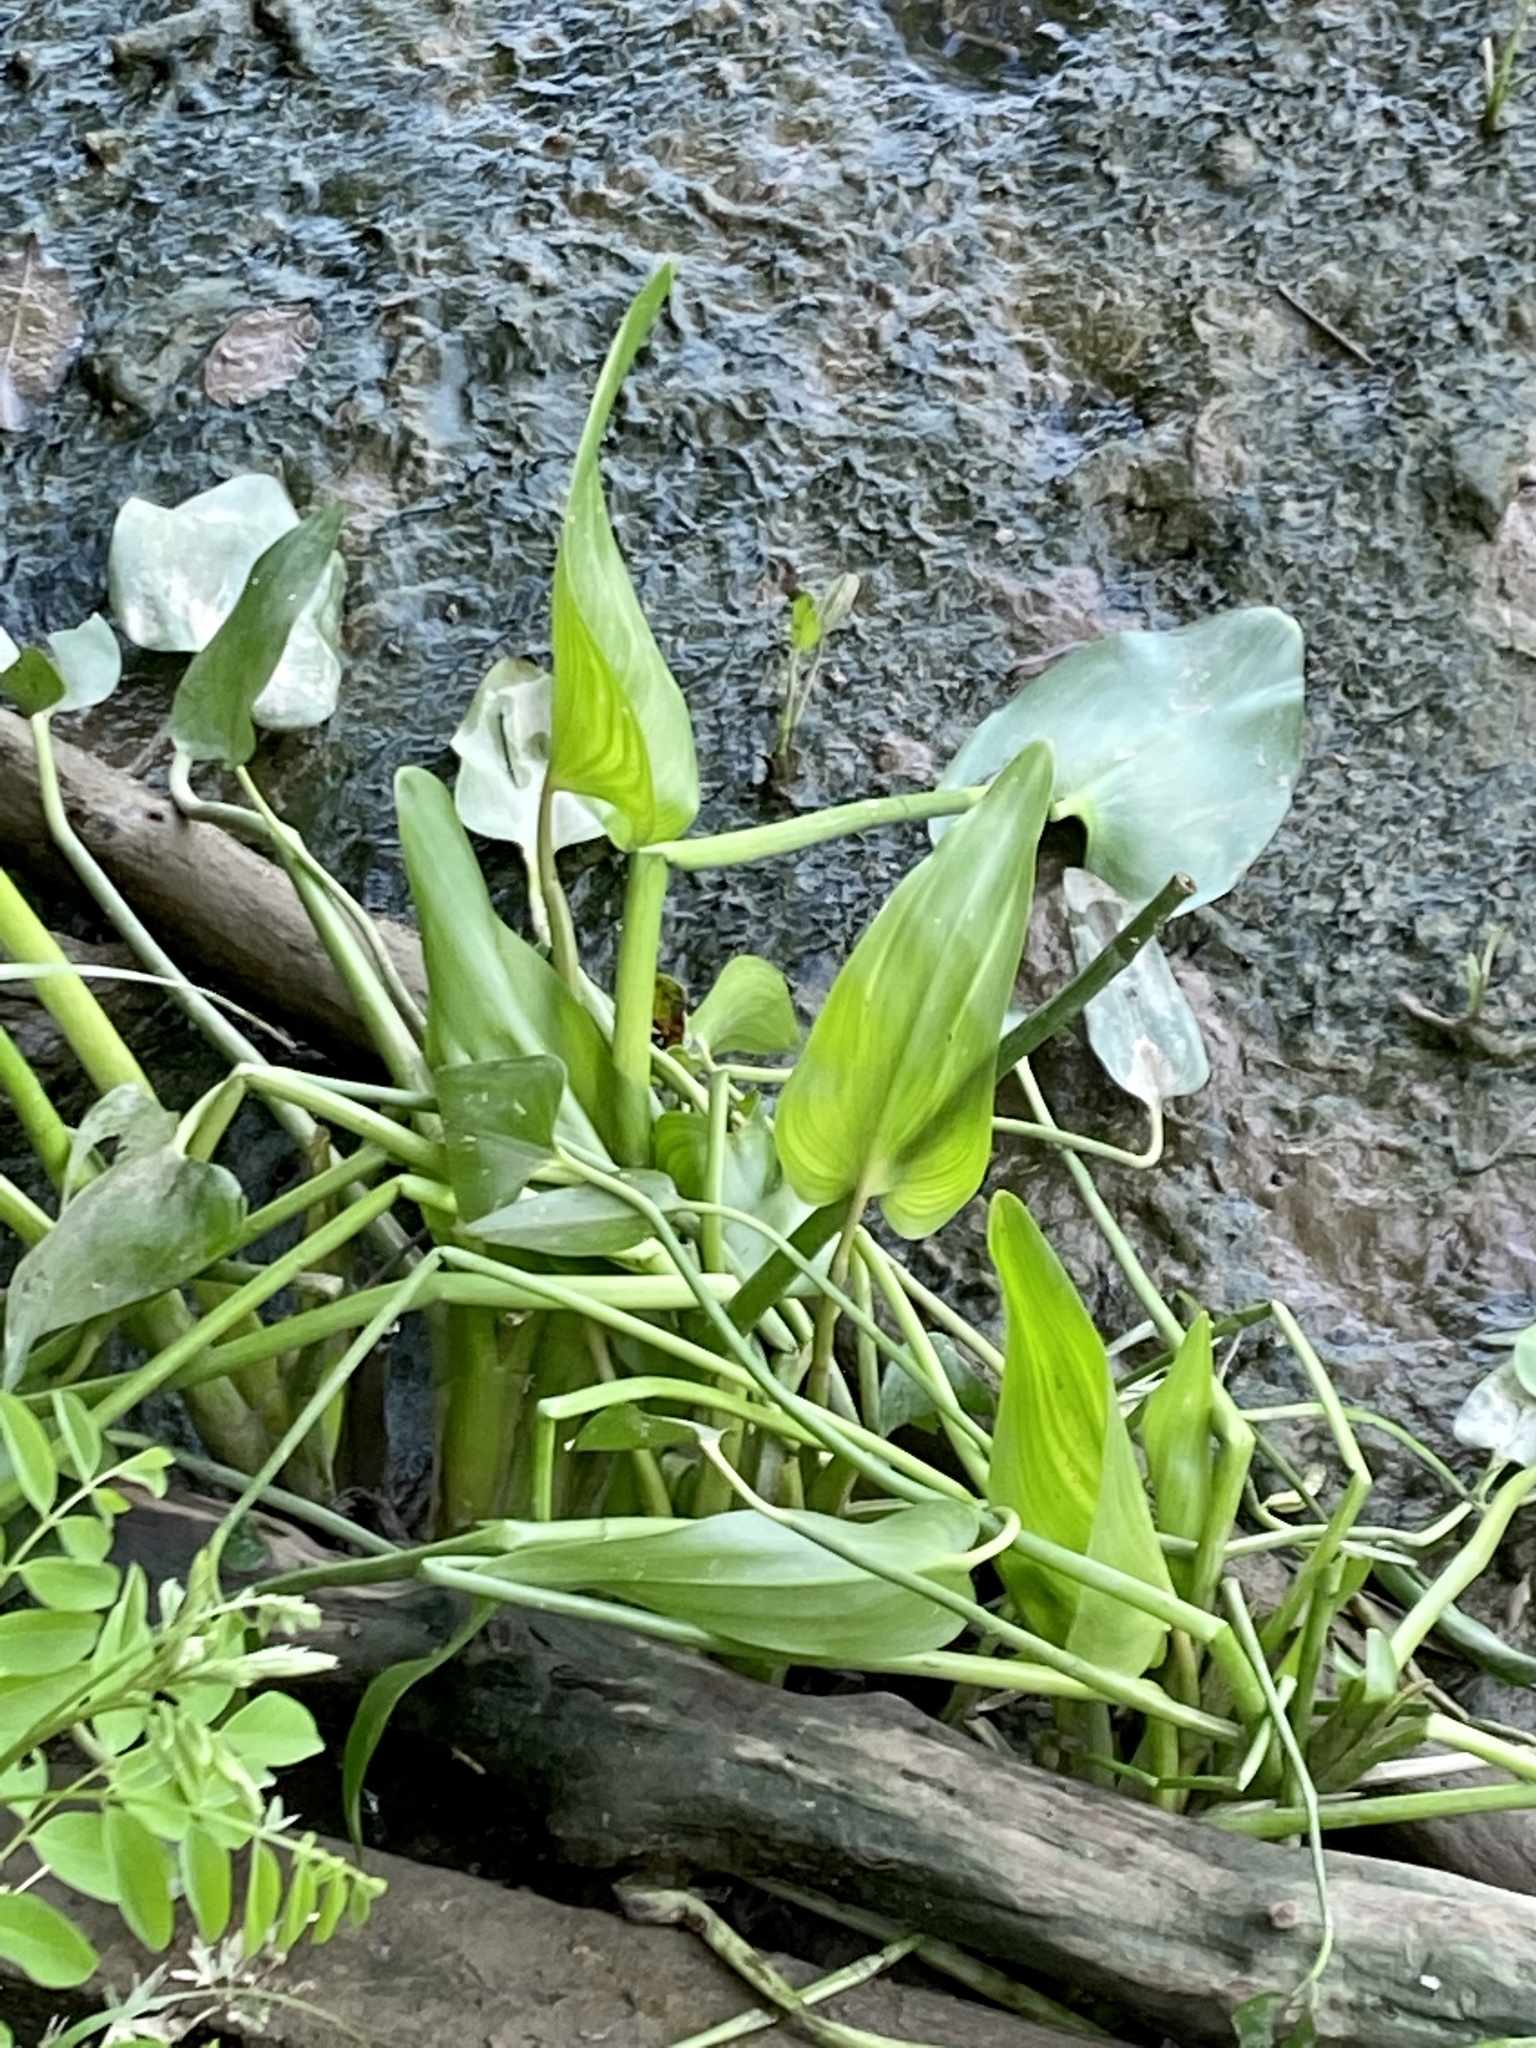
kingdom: Plantae
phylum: Tracheophyta
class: Liliopsida
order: Commelinales
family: Pontederiaceae
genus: Pontederia
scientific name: Pontederia cordata
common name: Pickerelweed
